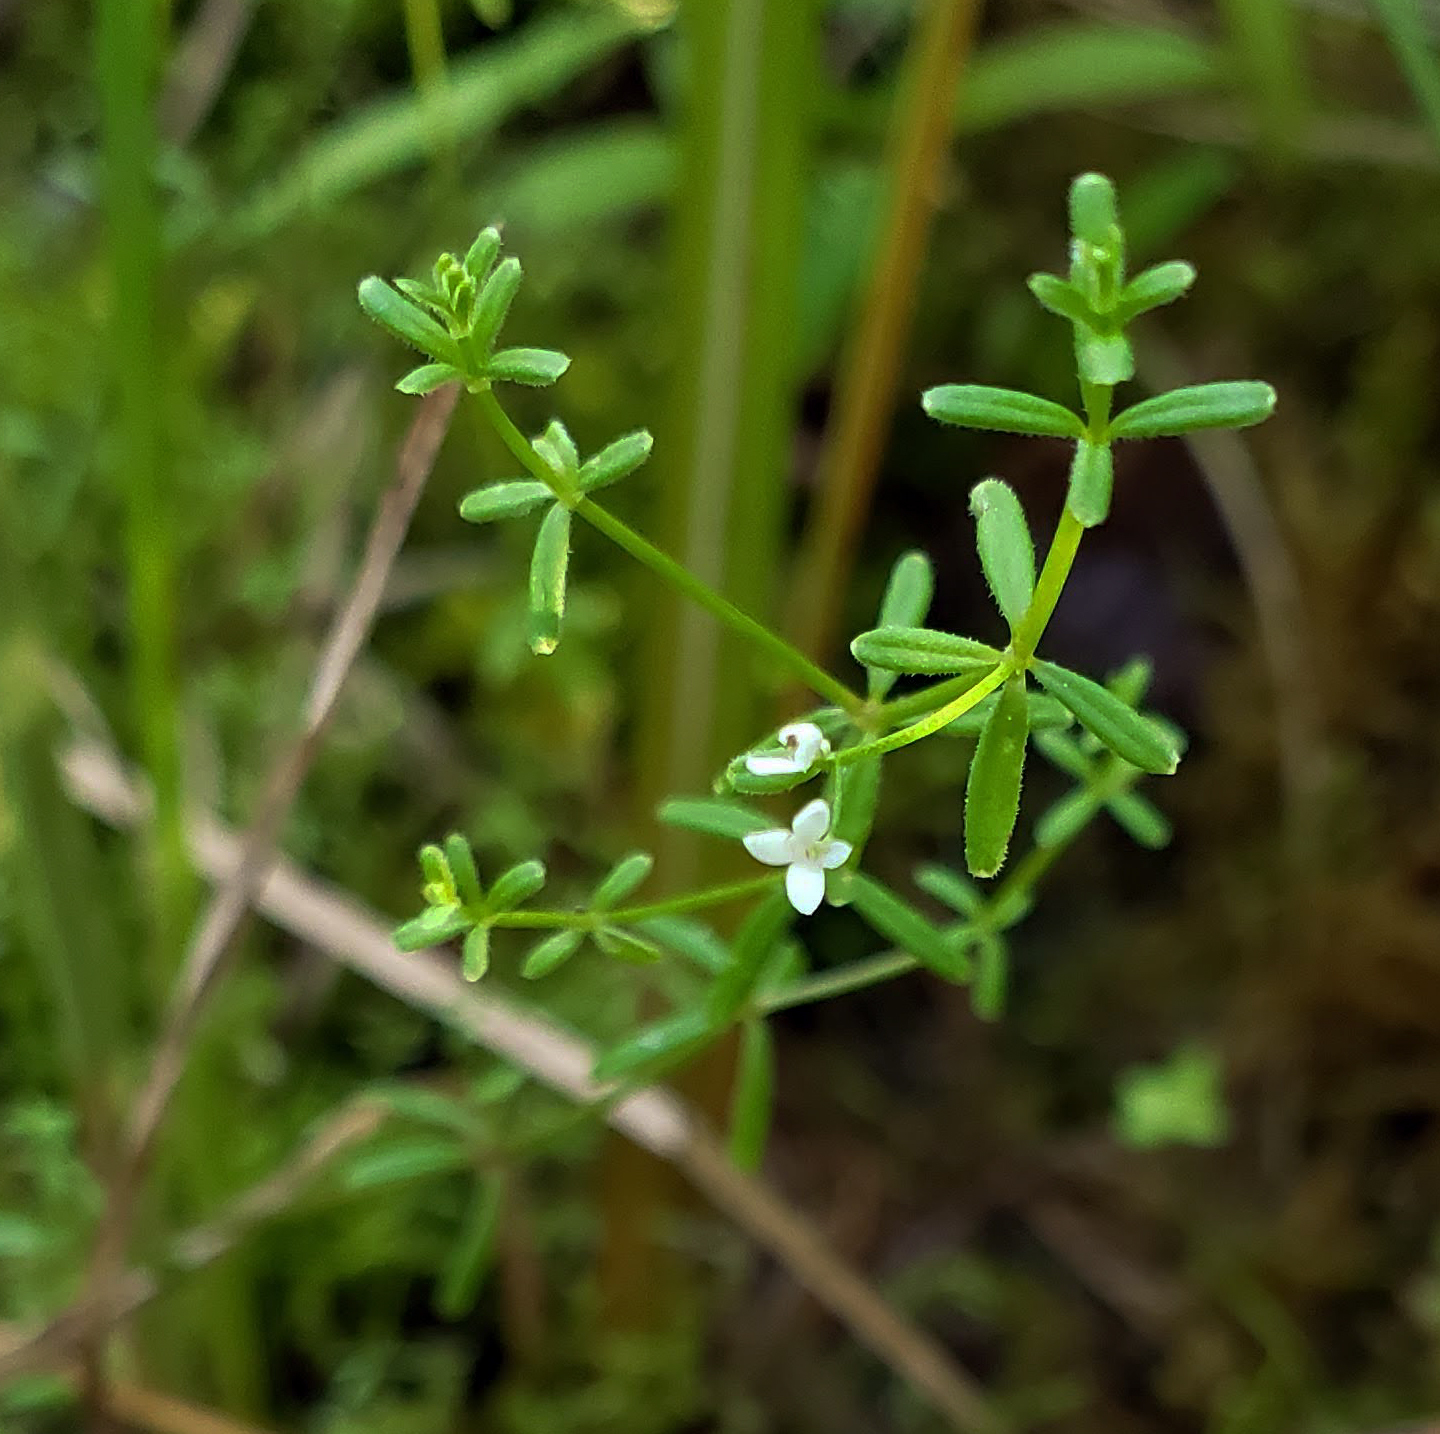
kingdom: Plantae
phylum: Tracheophyta
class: Magnoliopsida
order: Gentianales
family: Rubiaceae
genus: Galium
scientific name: Galium labradoricum
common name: Labrador bedstraw
